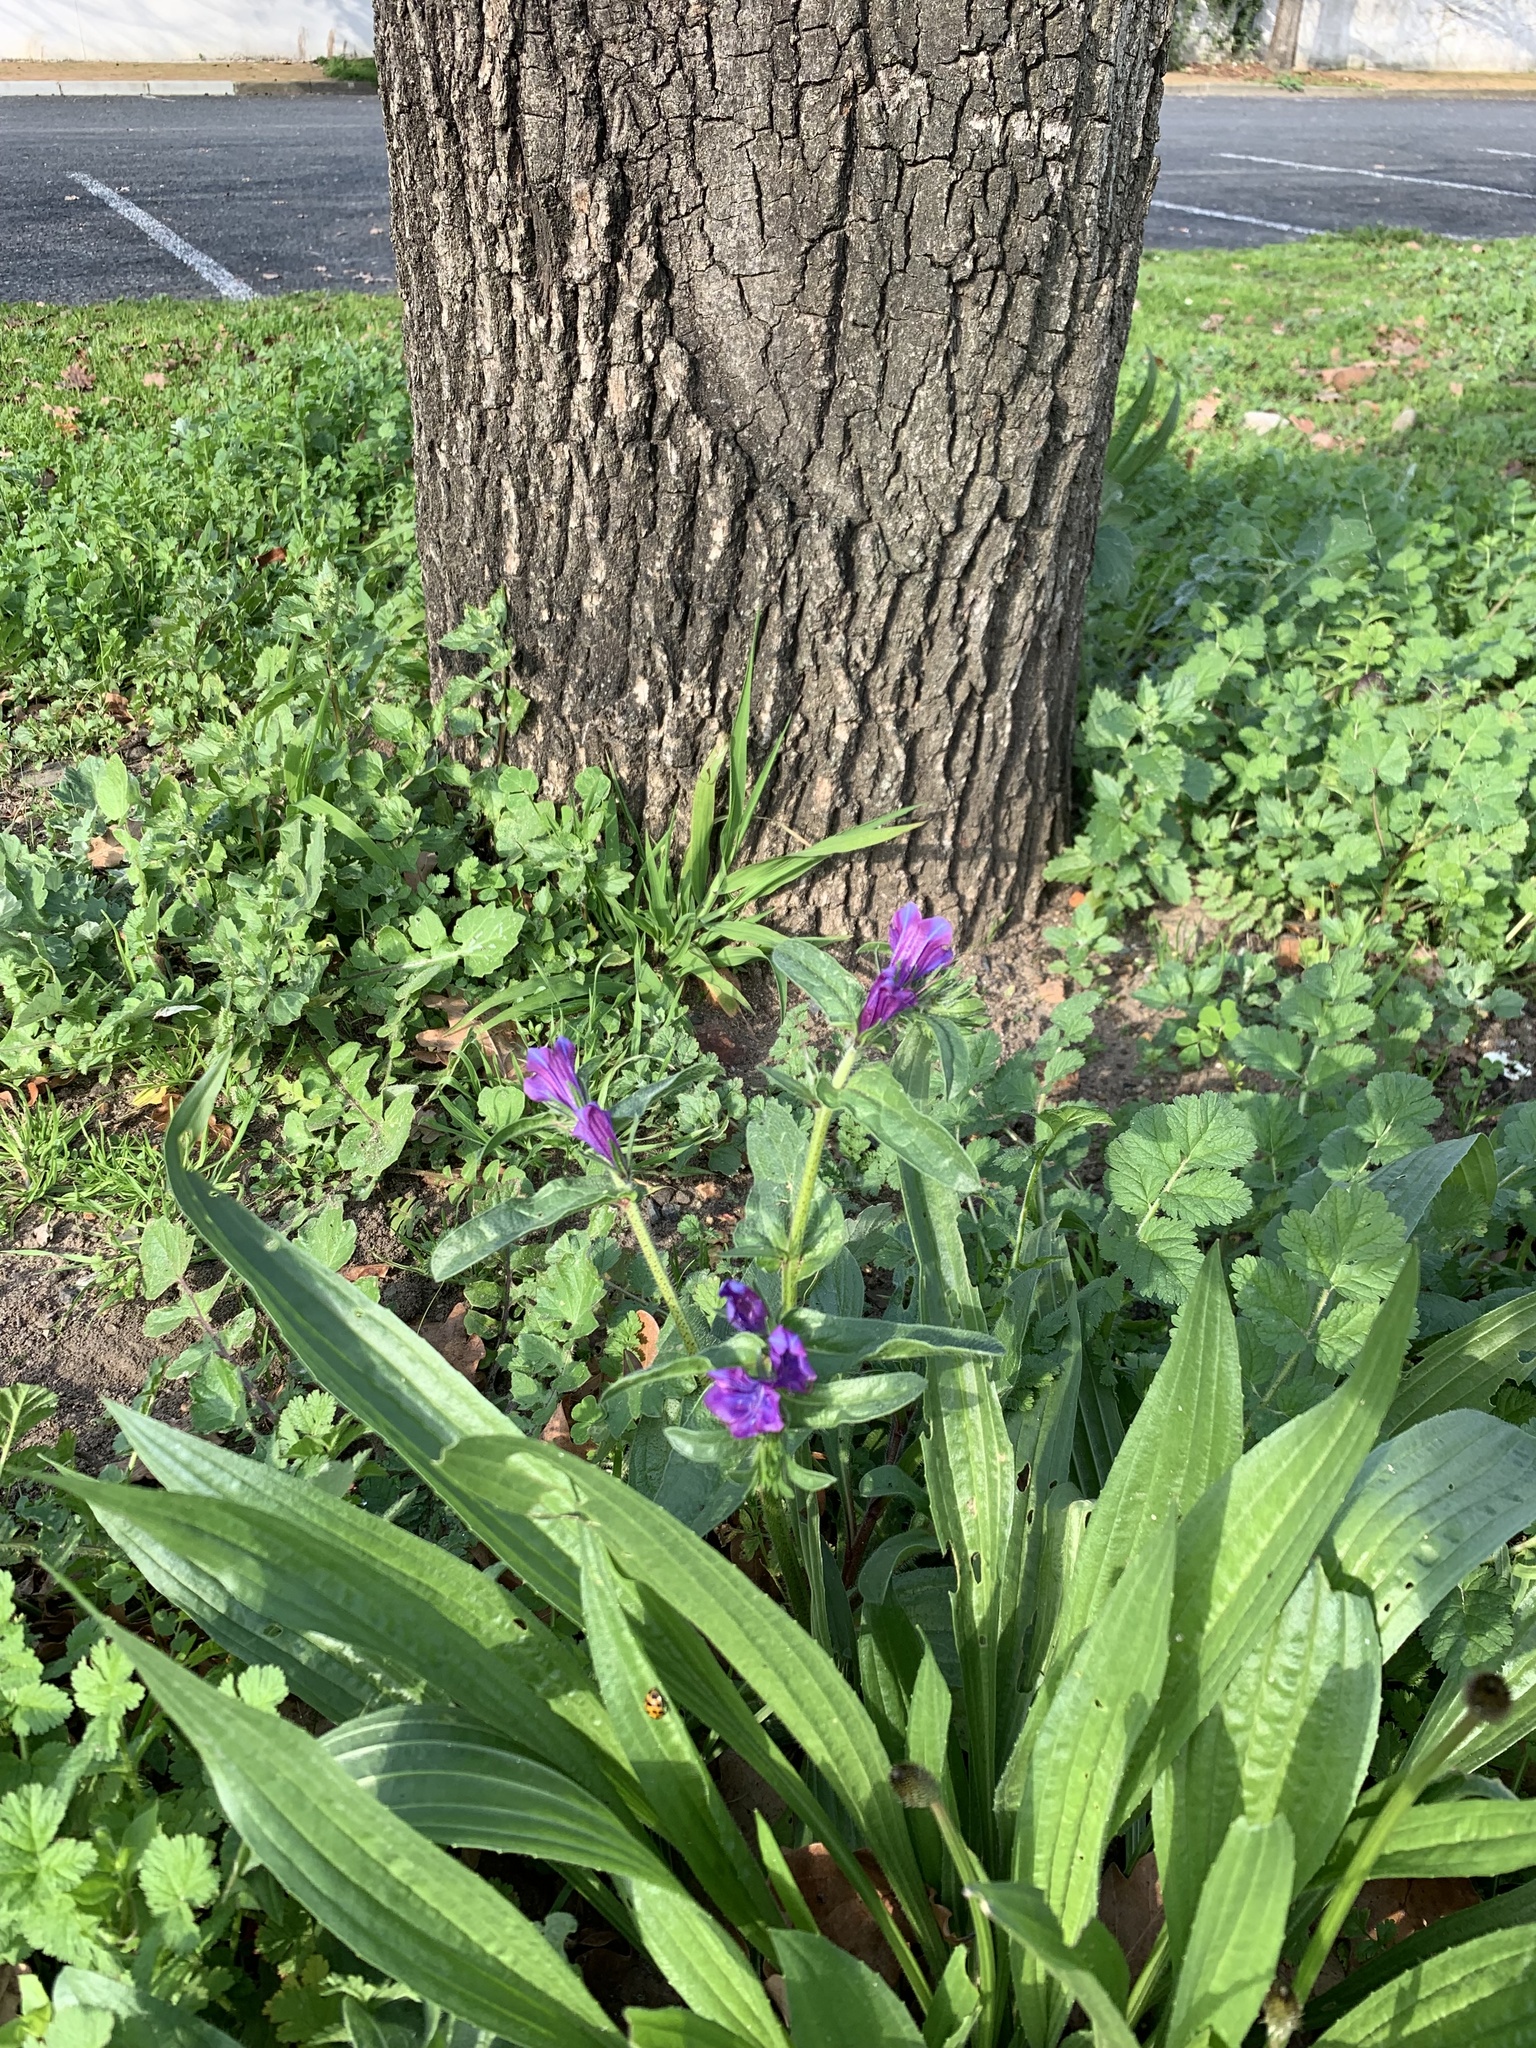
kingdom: Plantae
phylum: Tracheophyta
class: Magnoliopsida
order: Boraginales
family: Boraginaceae
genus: Echium
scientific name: Echium plantagineum
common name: Purple viper's-bugloss
